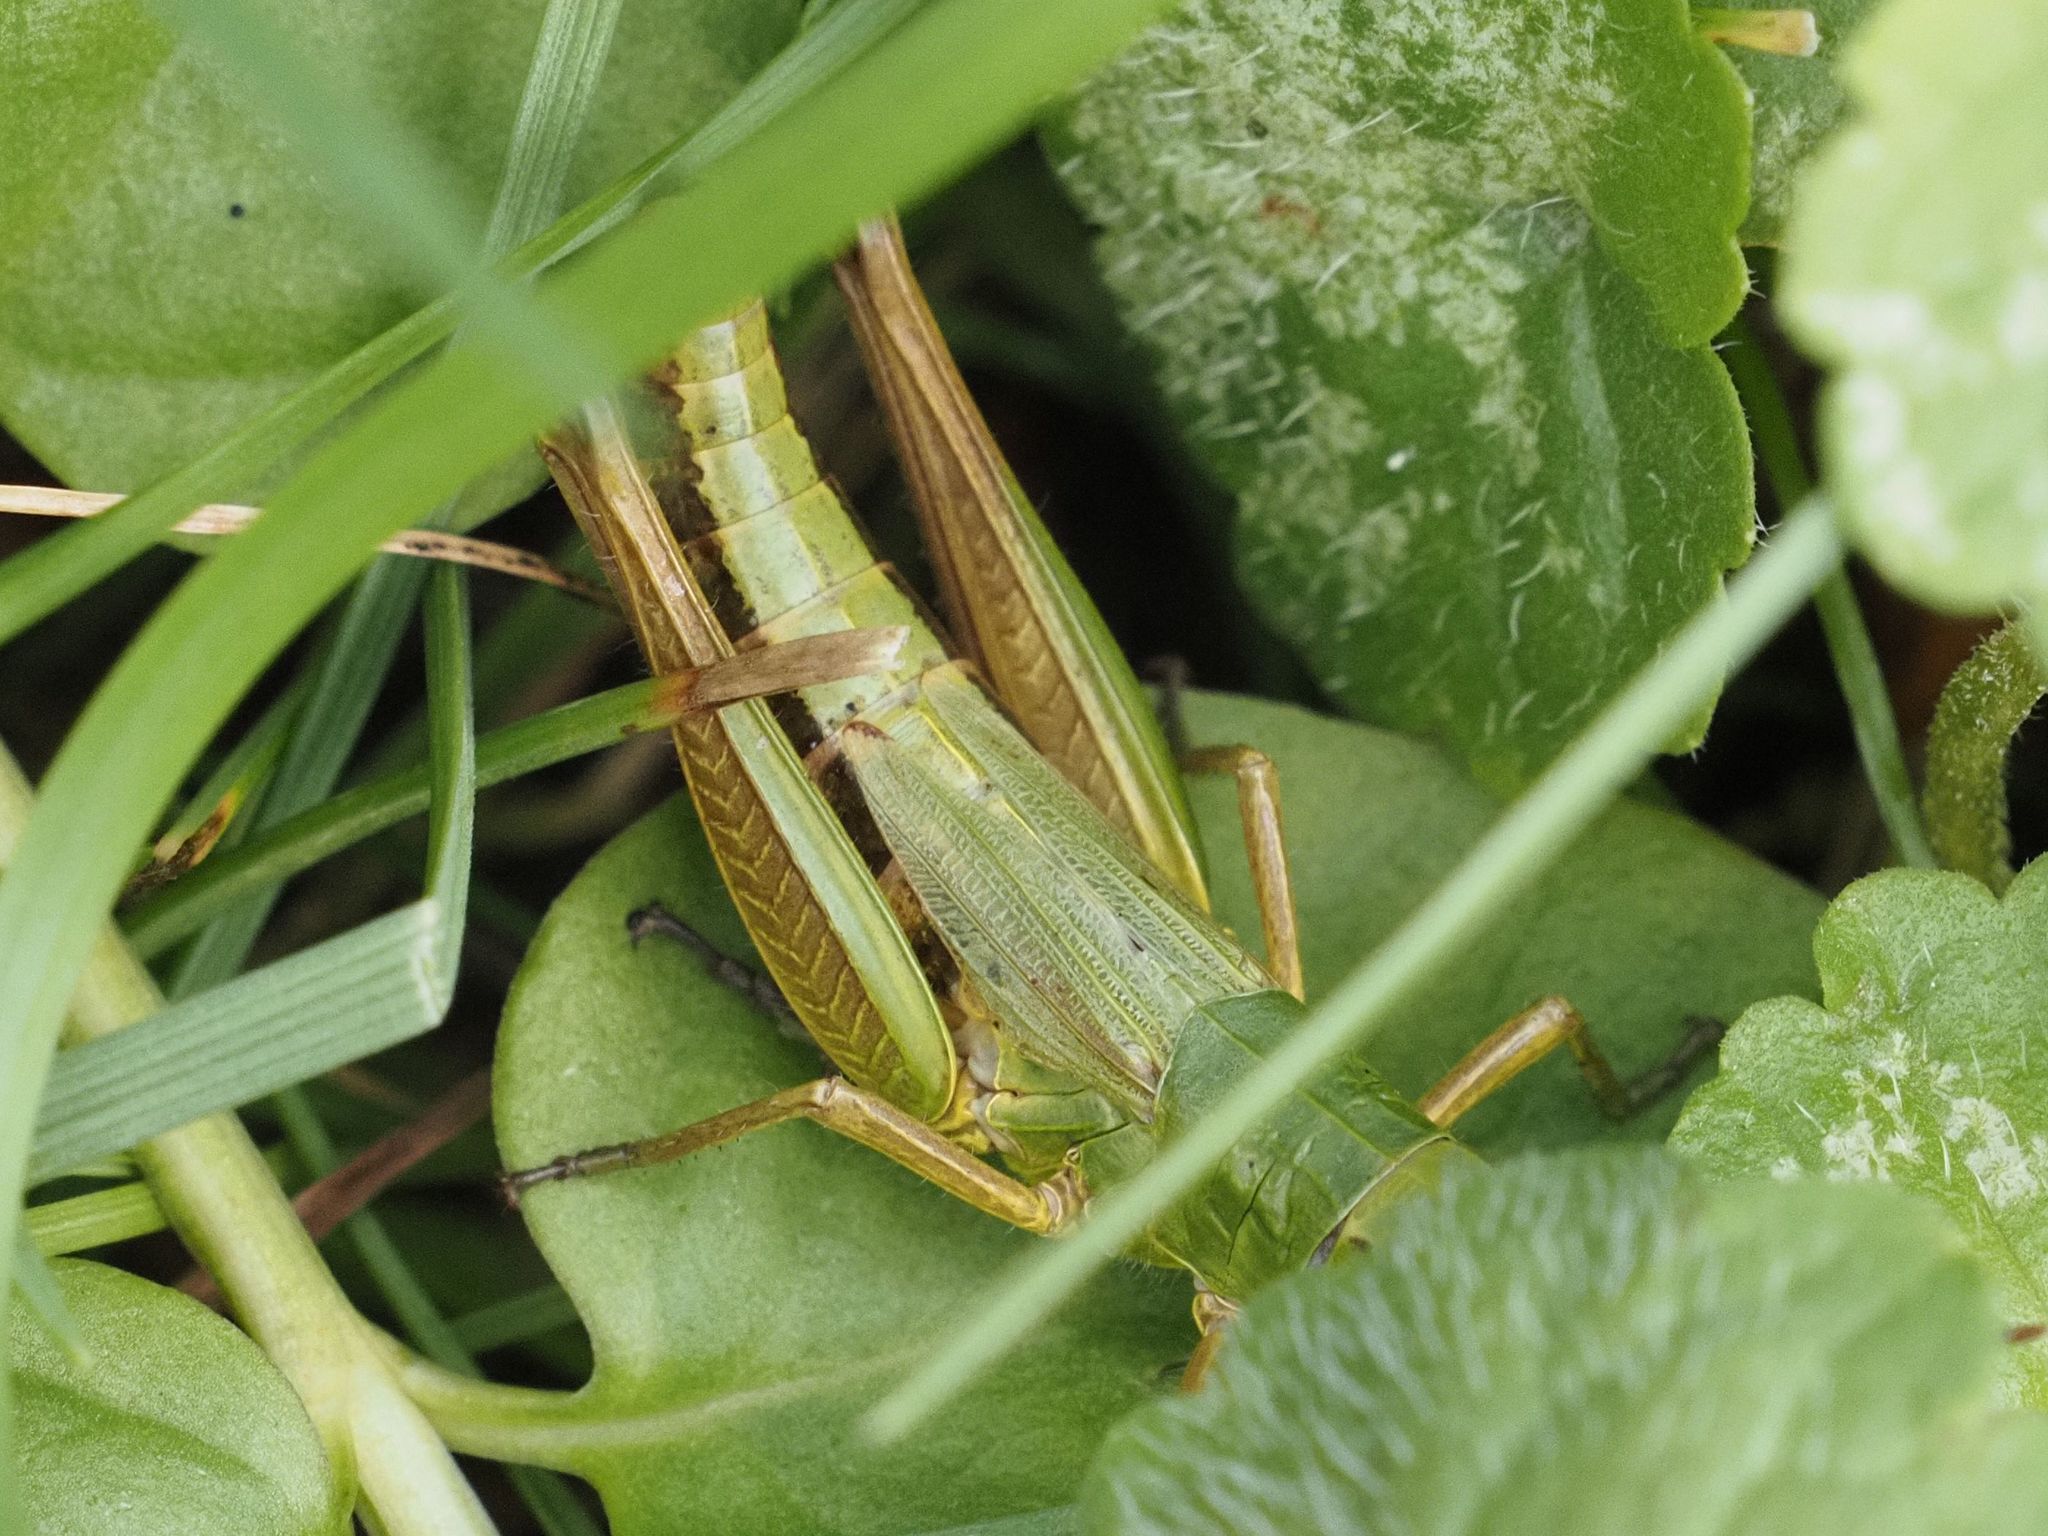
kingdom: Animalia
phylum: Arthropoda
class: Insecta
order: Orthoptera
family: Acrididae
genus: Pseudochorthippus
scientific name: Pseudochorthippus parallelus
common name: Meadow grasshopper
